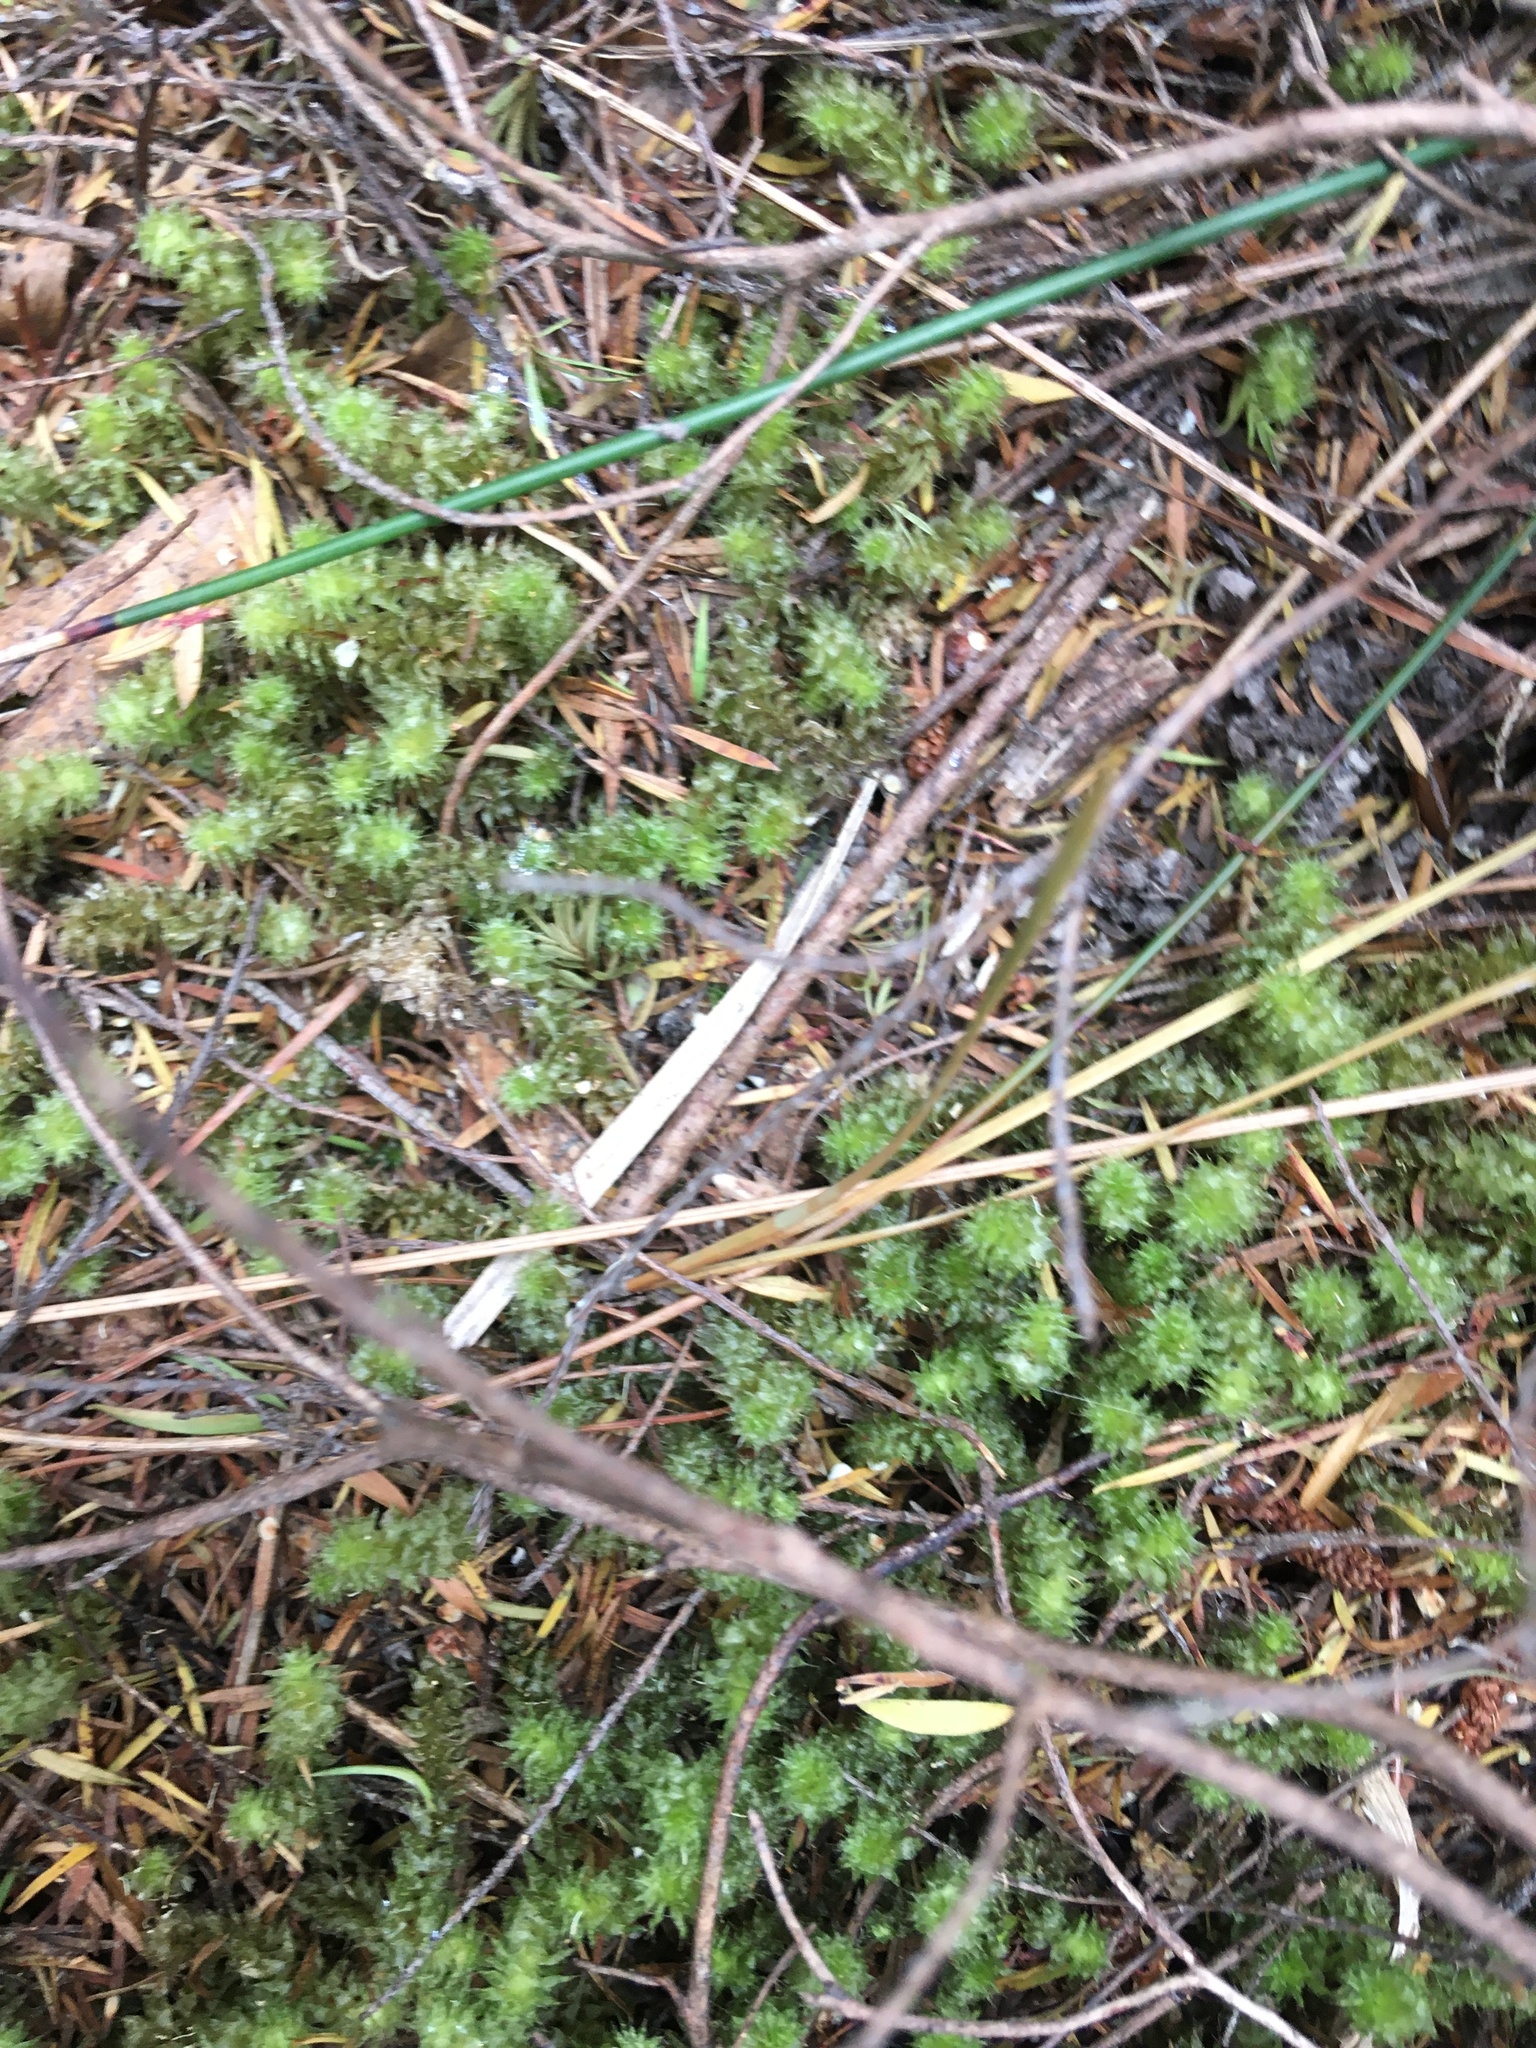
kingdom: Plantae
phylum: Bryophyta
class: Bryopsida
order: Ptychomniales
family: Ptychomniaceae
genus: Ptychomnion
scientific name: Ptychomnion aciculare
